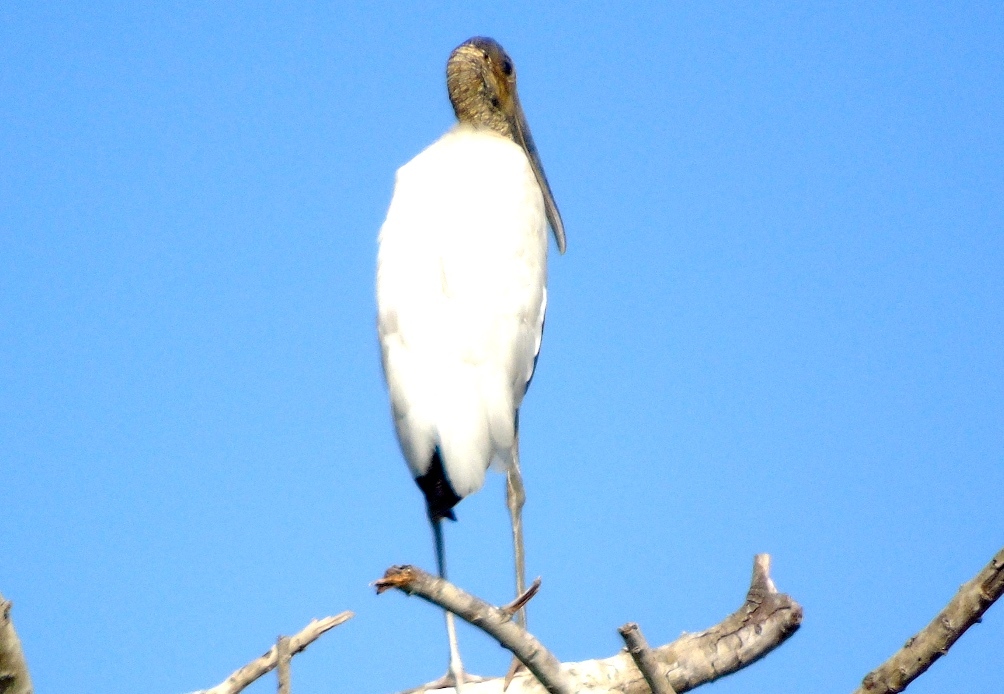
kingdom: Animalia
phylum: Chordata
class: Aves
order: Ciconiiformes
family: Ciconiidae
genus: Mycteria
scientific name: Mycteria americana
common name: Wood stork
